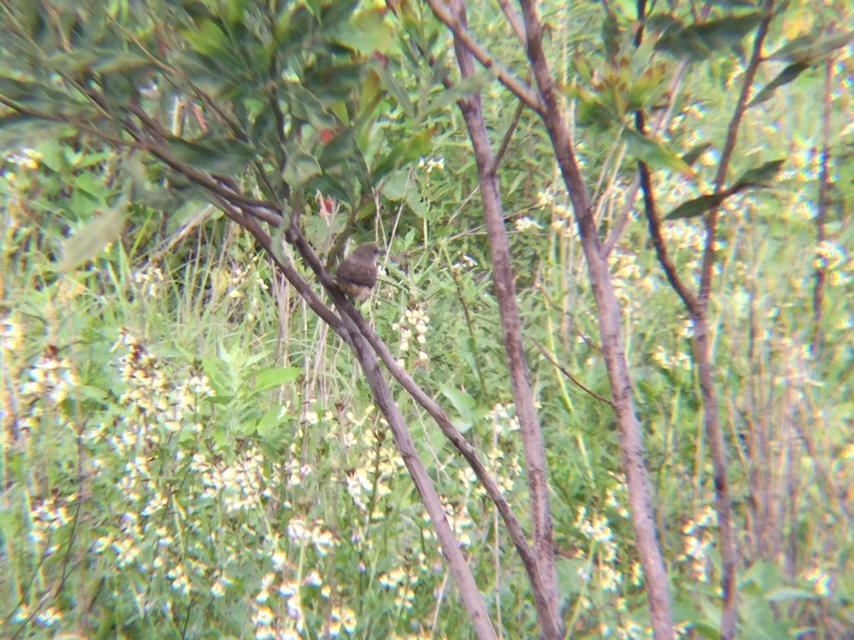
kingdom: Animalia
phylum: Chordata
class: Aves
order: Passeriformes
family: Tyrannidae
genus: Pyrocephalus
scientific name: Pyrocephalus rubinus
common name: Vermilion flycatcher
